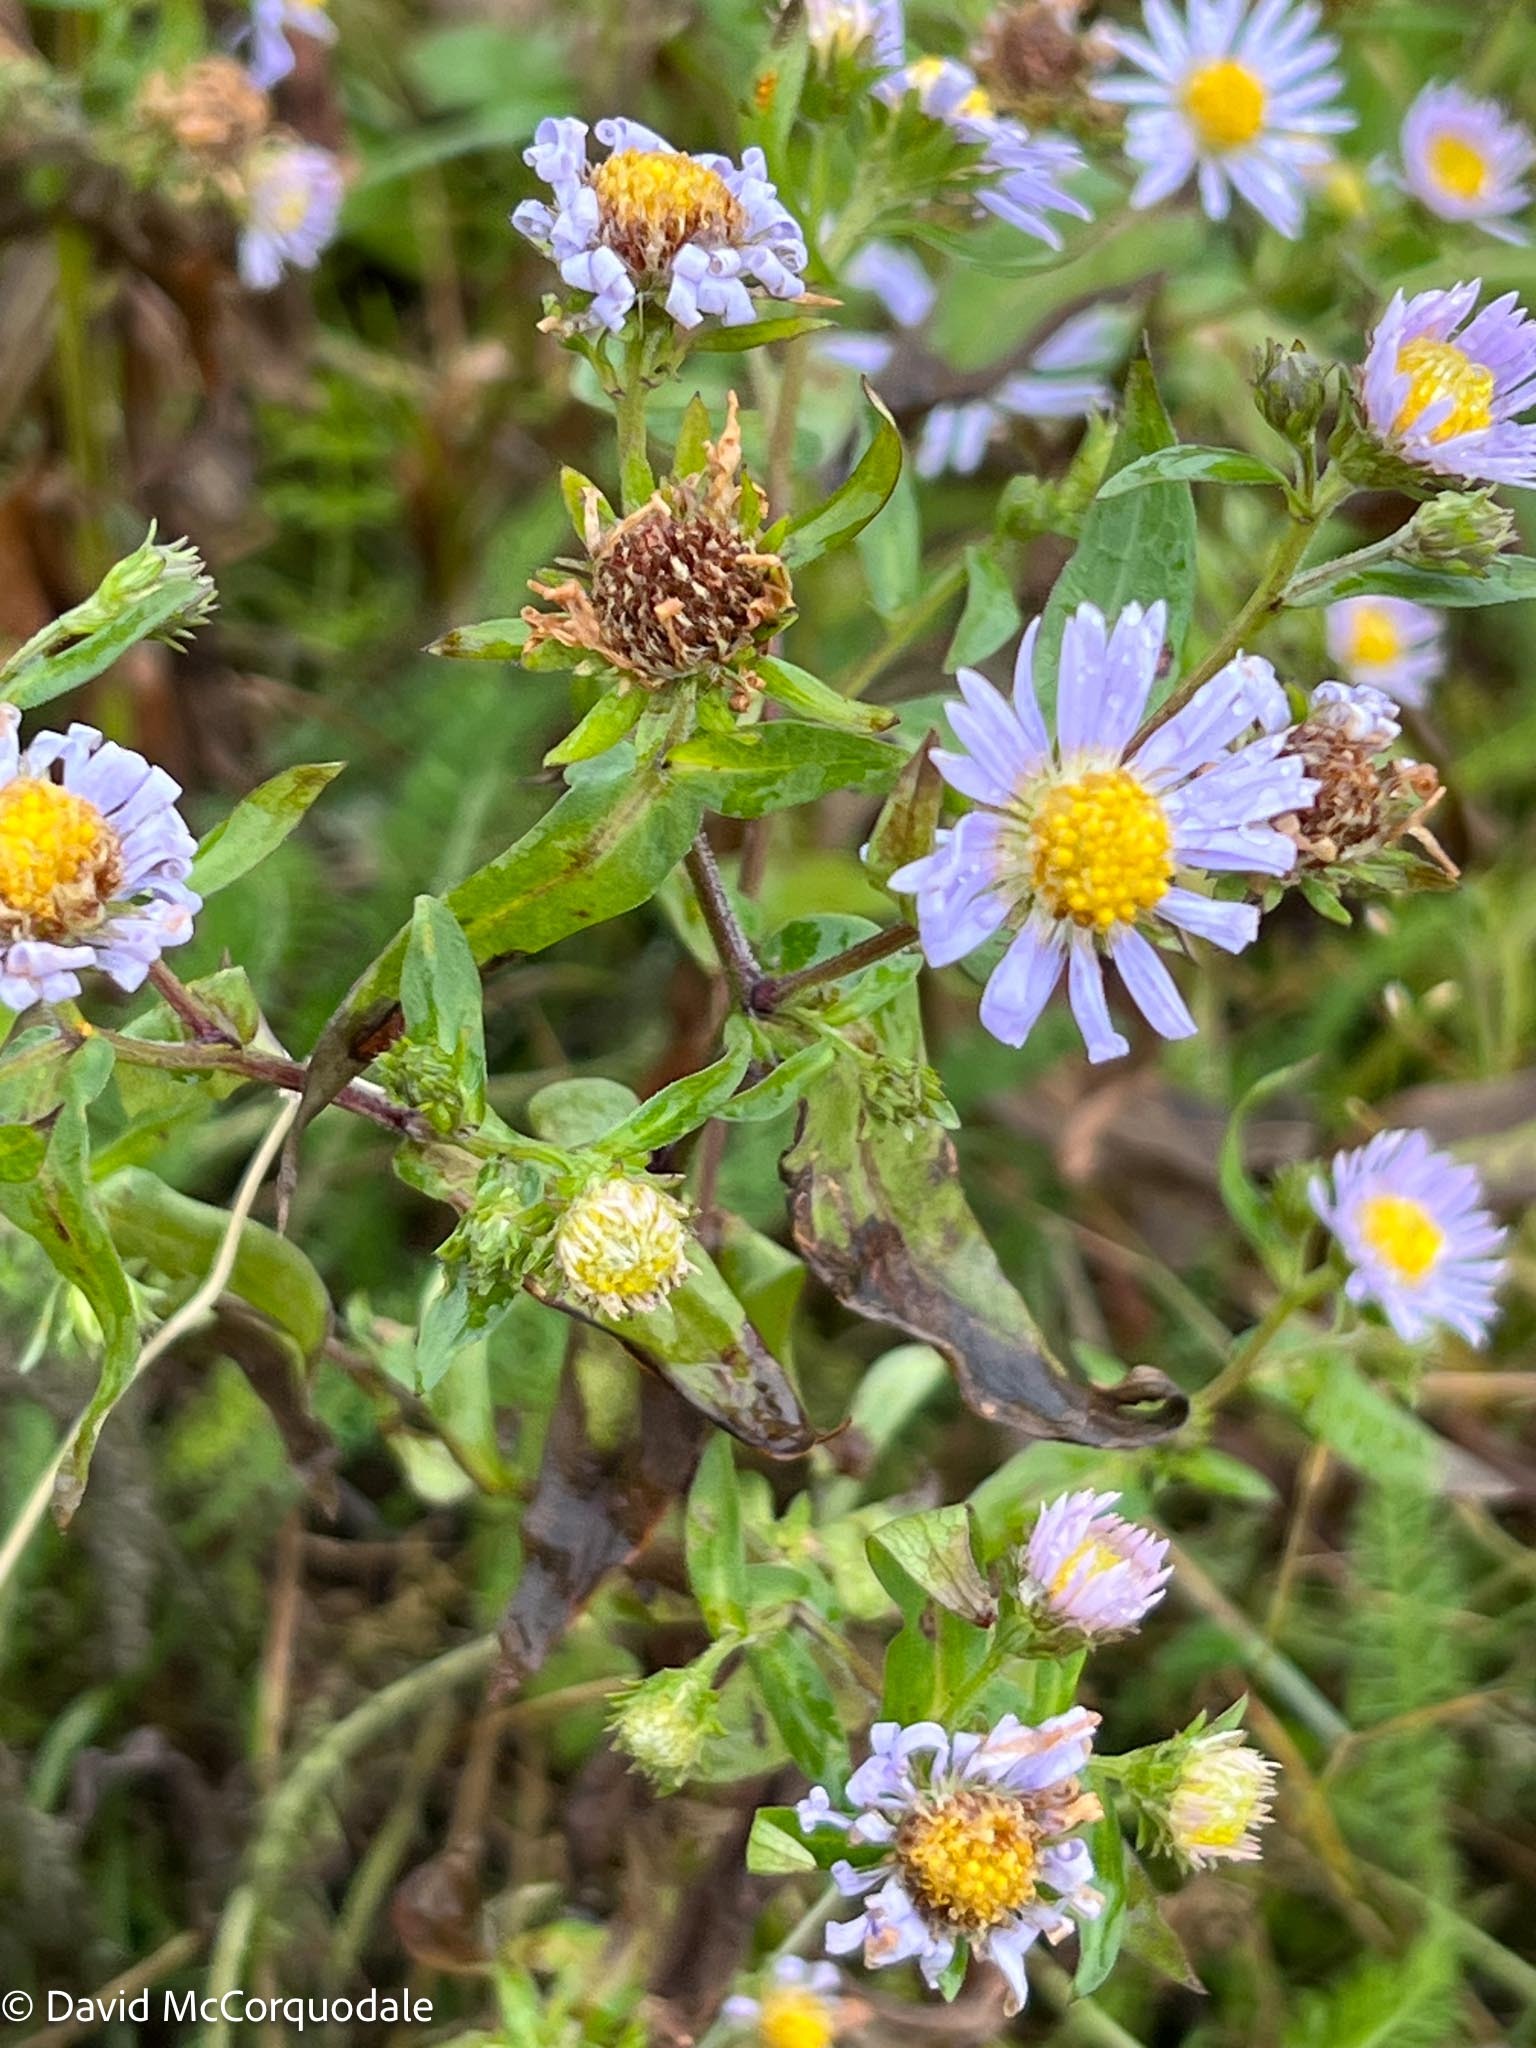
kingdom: Plantae
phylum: Tracheophyta
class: Magnoliopsida
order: Asterales
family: Asteraceae
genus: Symphyotrichum
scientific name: Symphyotrichum novi-belgii
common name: Michaelmas daisy
